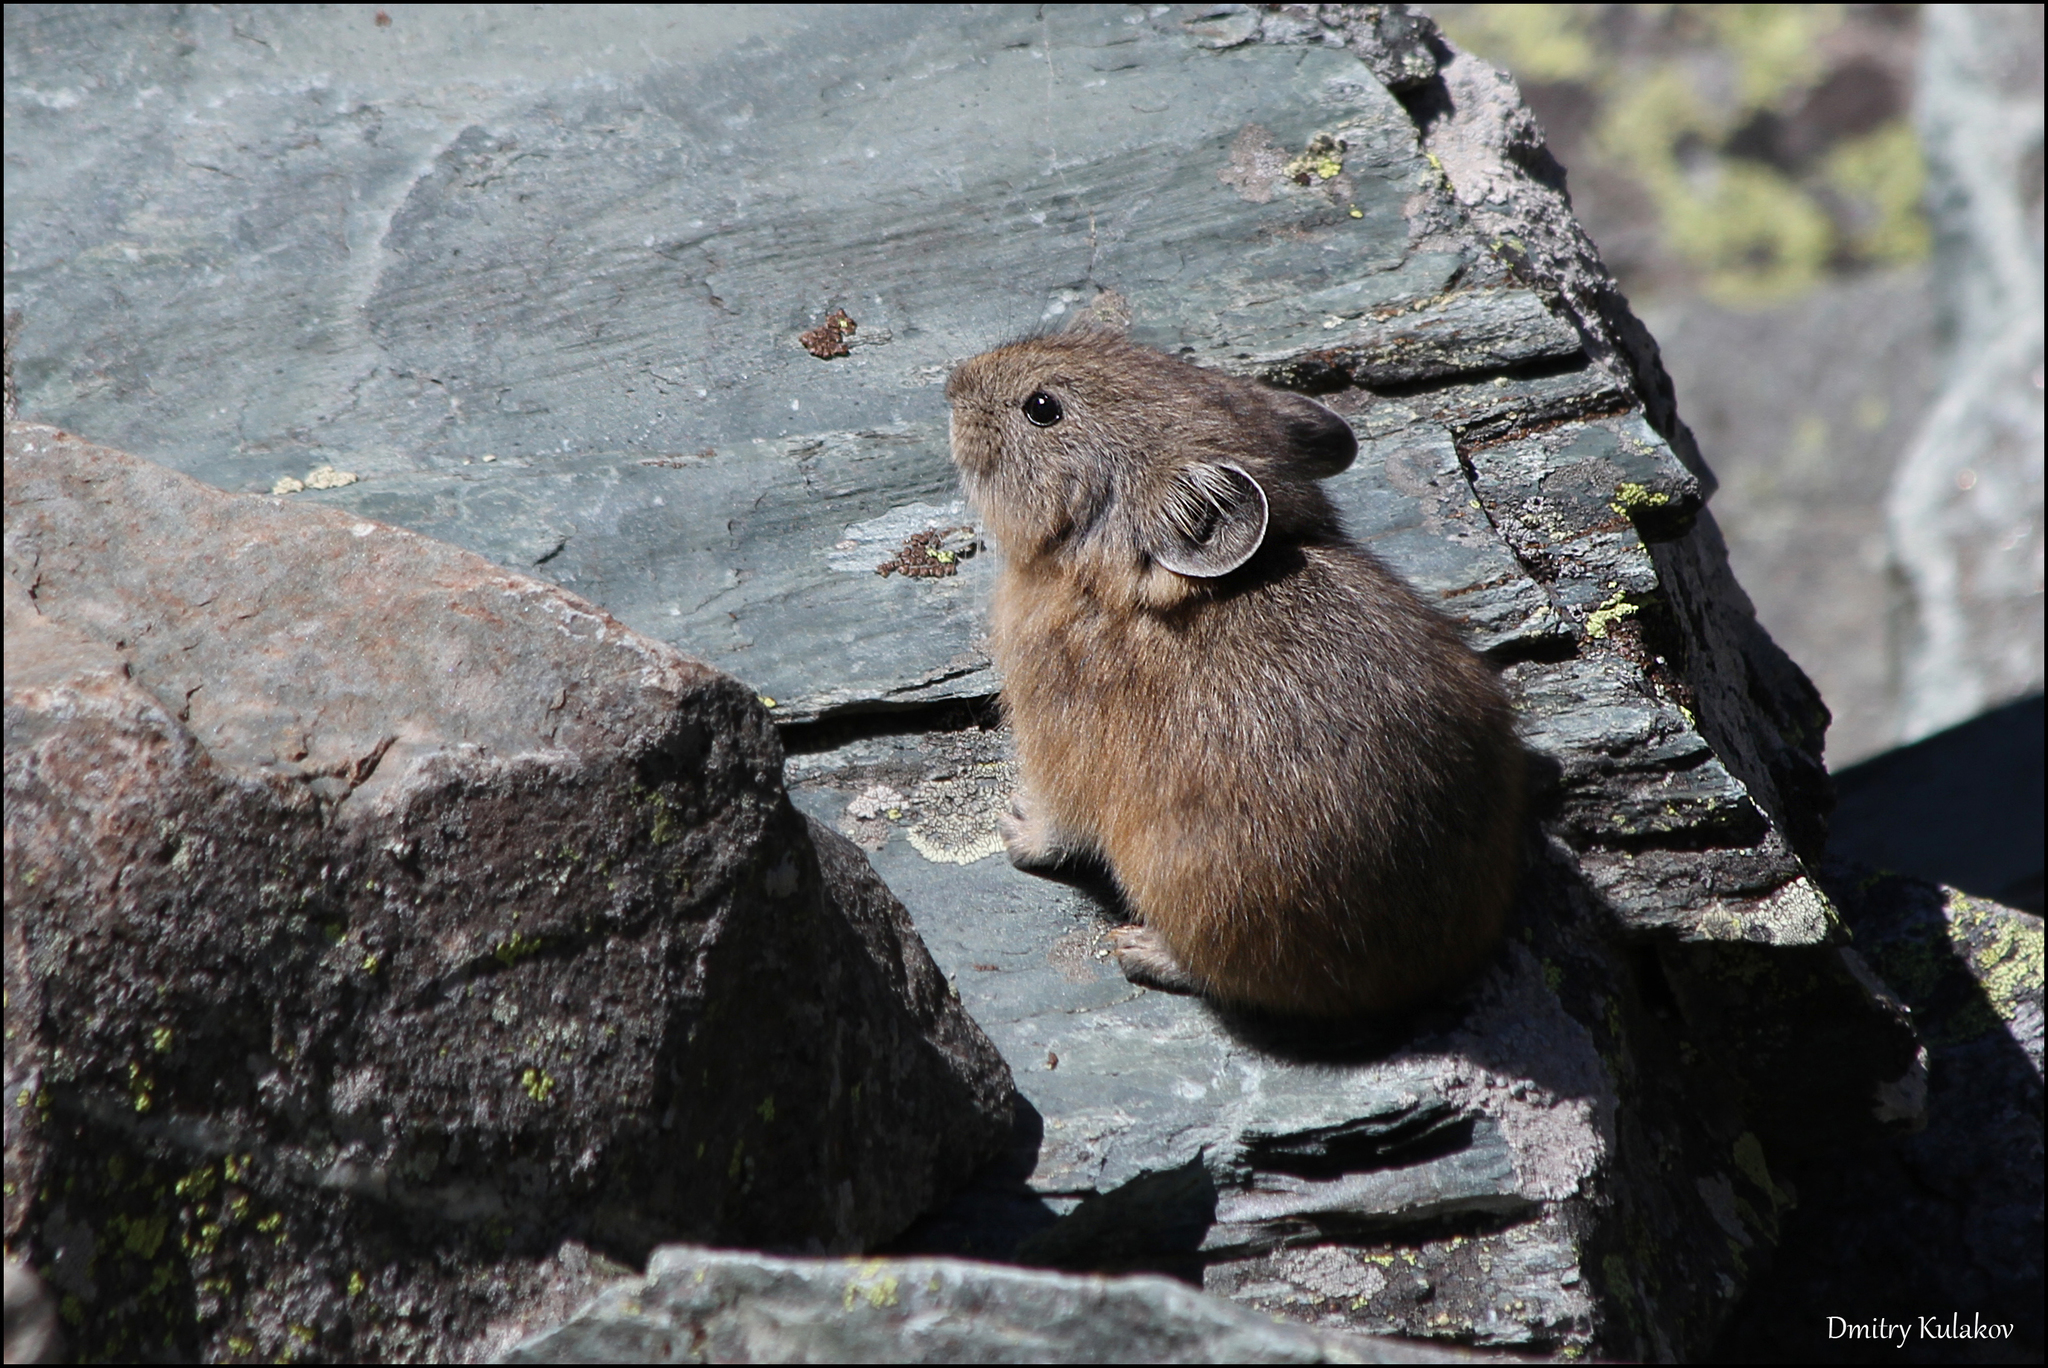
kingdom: Animalia
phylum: Chordata
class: Mammalia
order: Lagomorpha
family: Ochotonidae
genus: Ochotona
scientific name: Ochotona alpina
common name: Alpine pika
